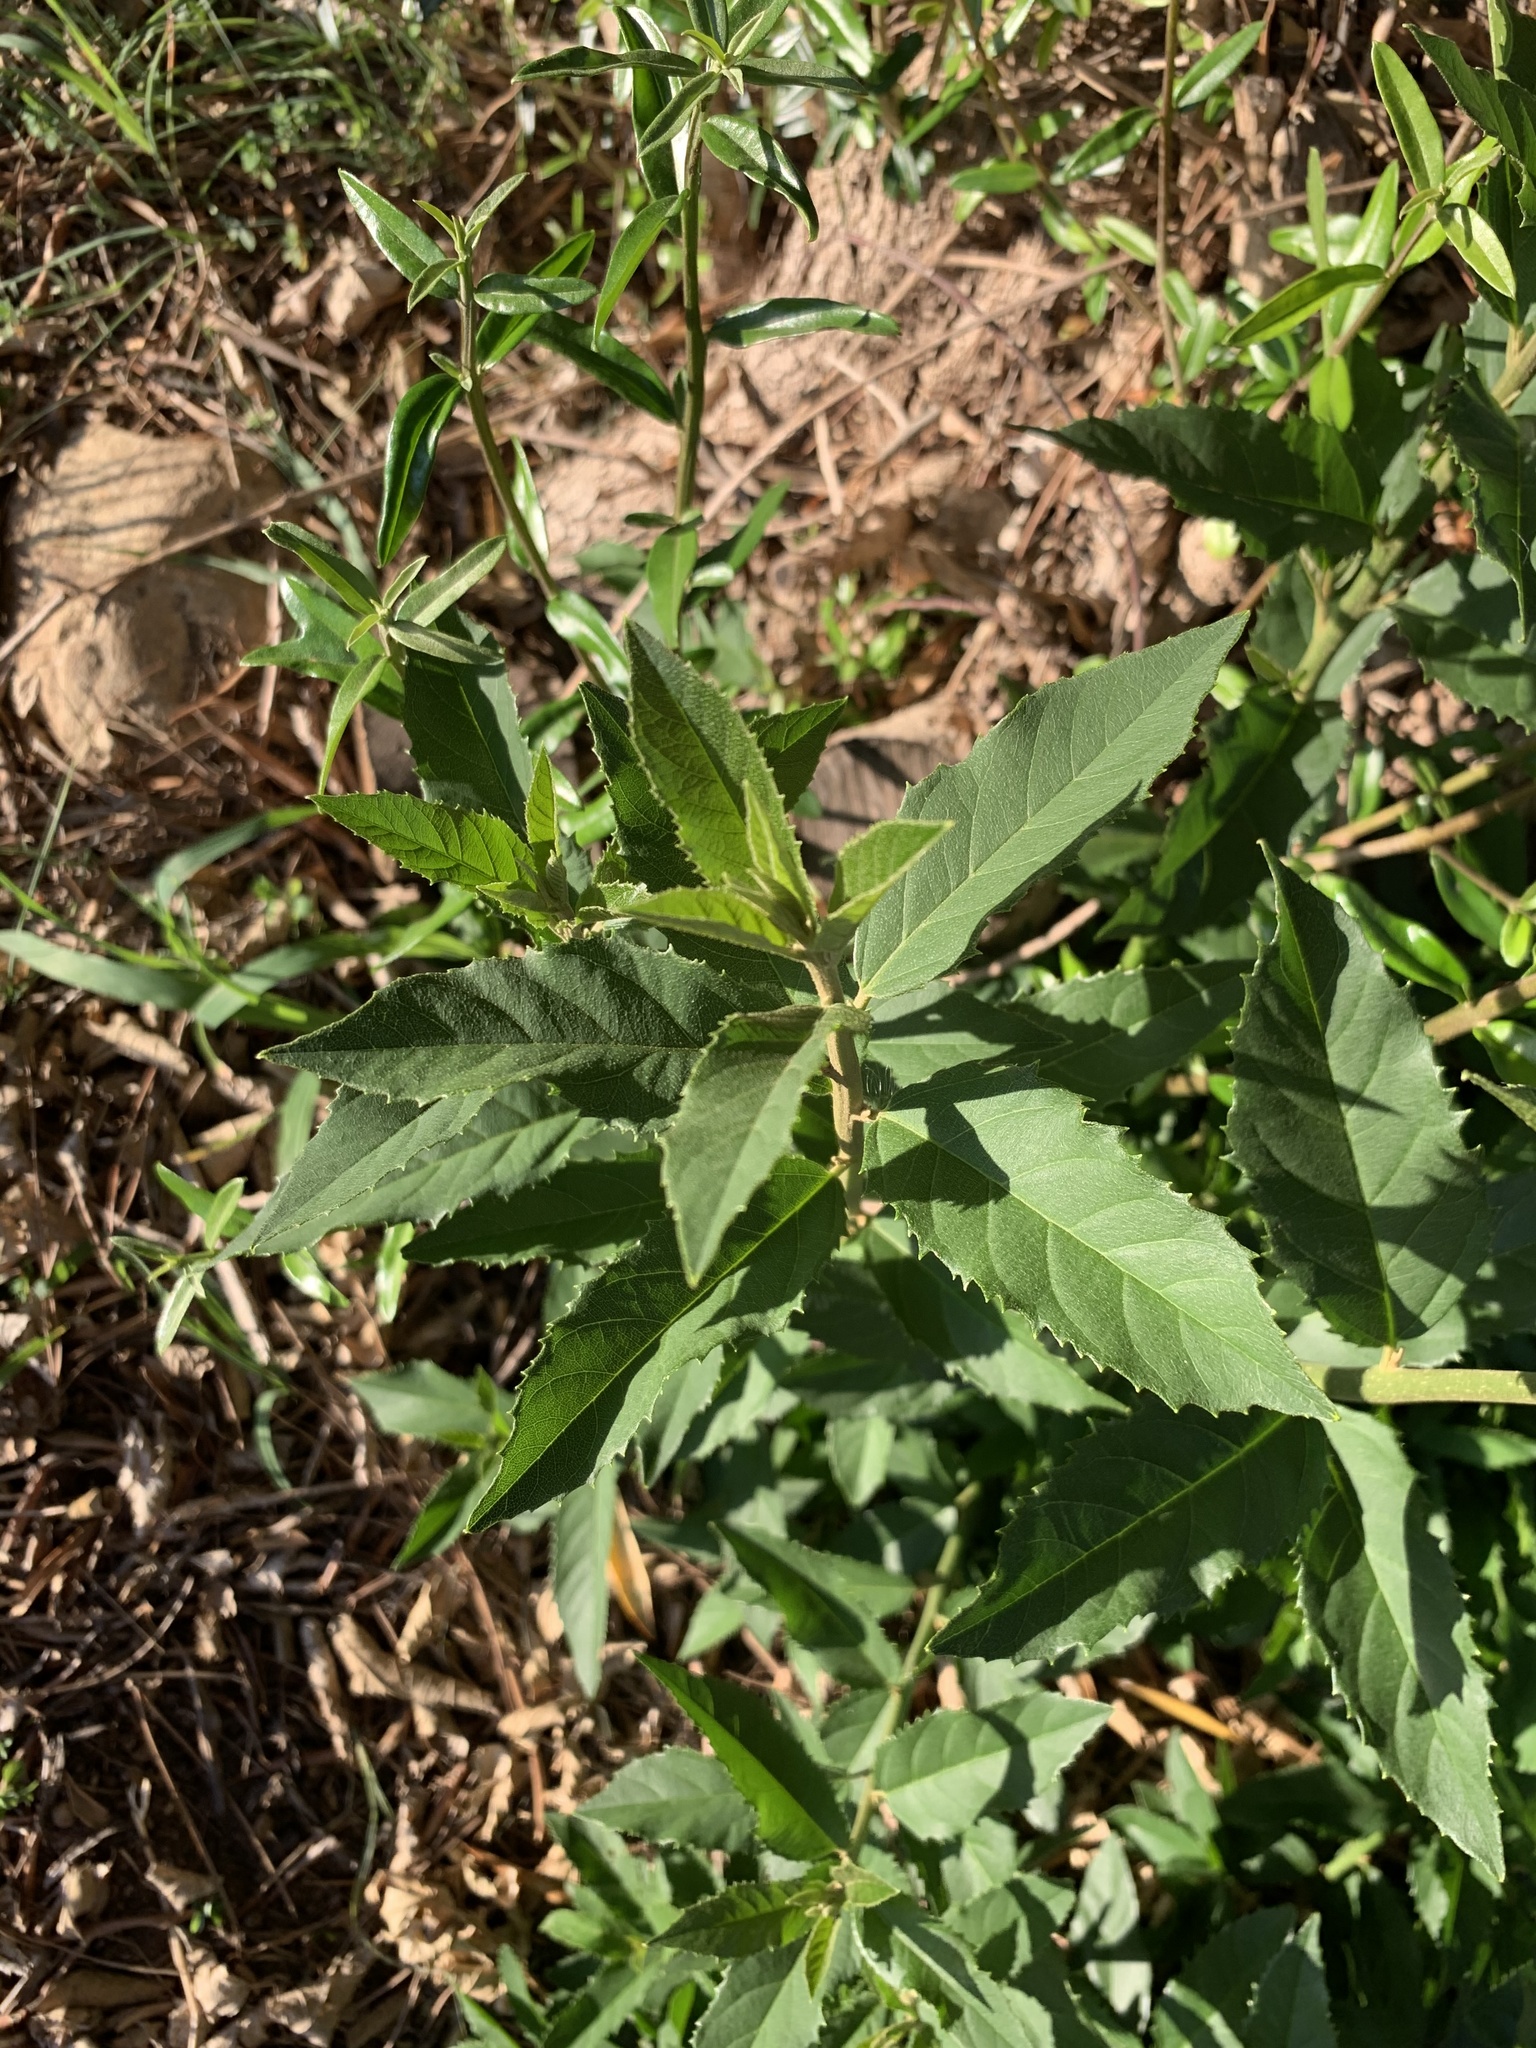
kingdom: Plantae
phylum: Tracheophyta
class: Magnoliopsida
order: Malpighiales
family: Achariaceae
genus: Kiggelaria
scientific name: Kiggelaria africana
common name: Wild peach
